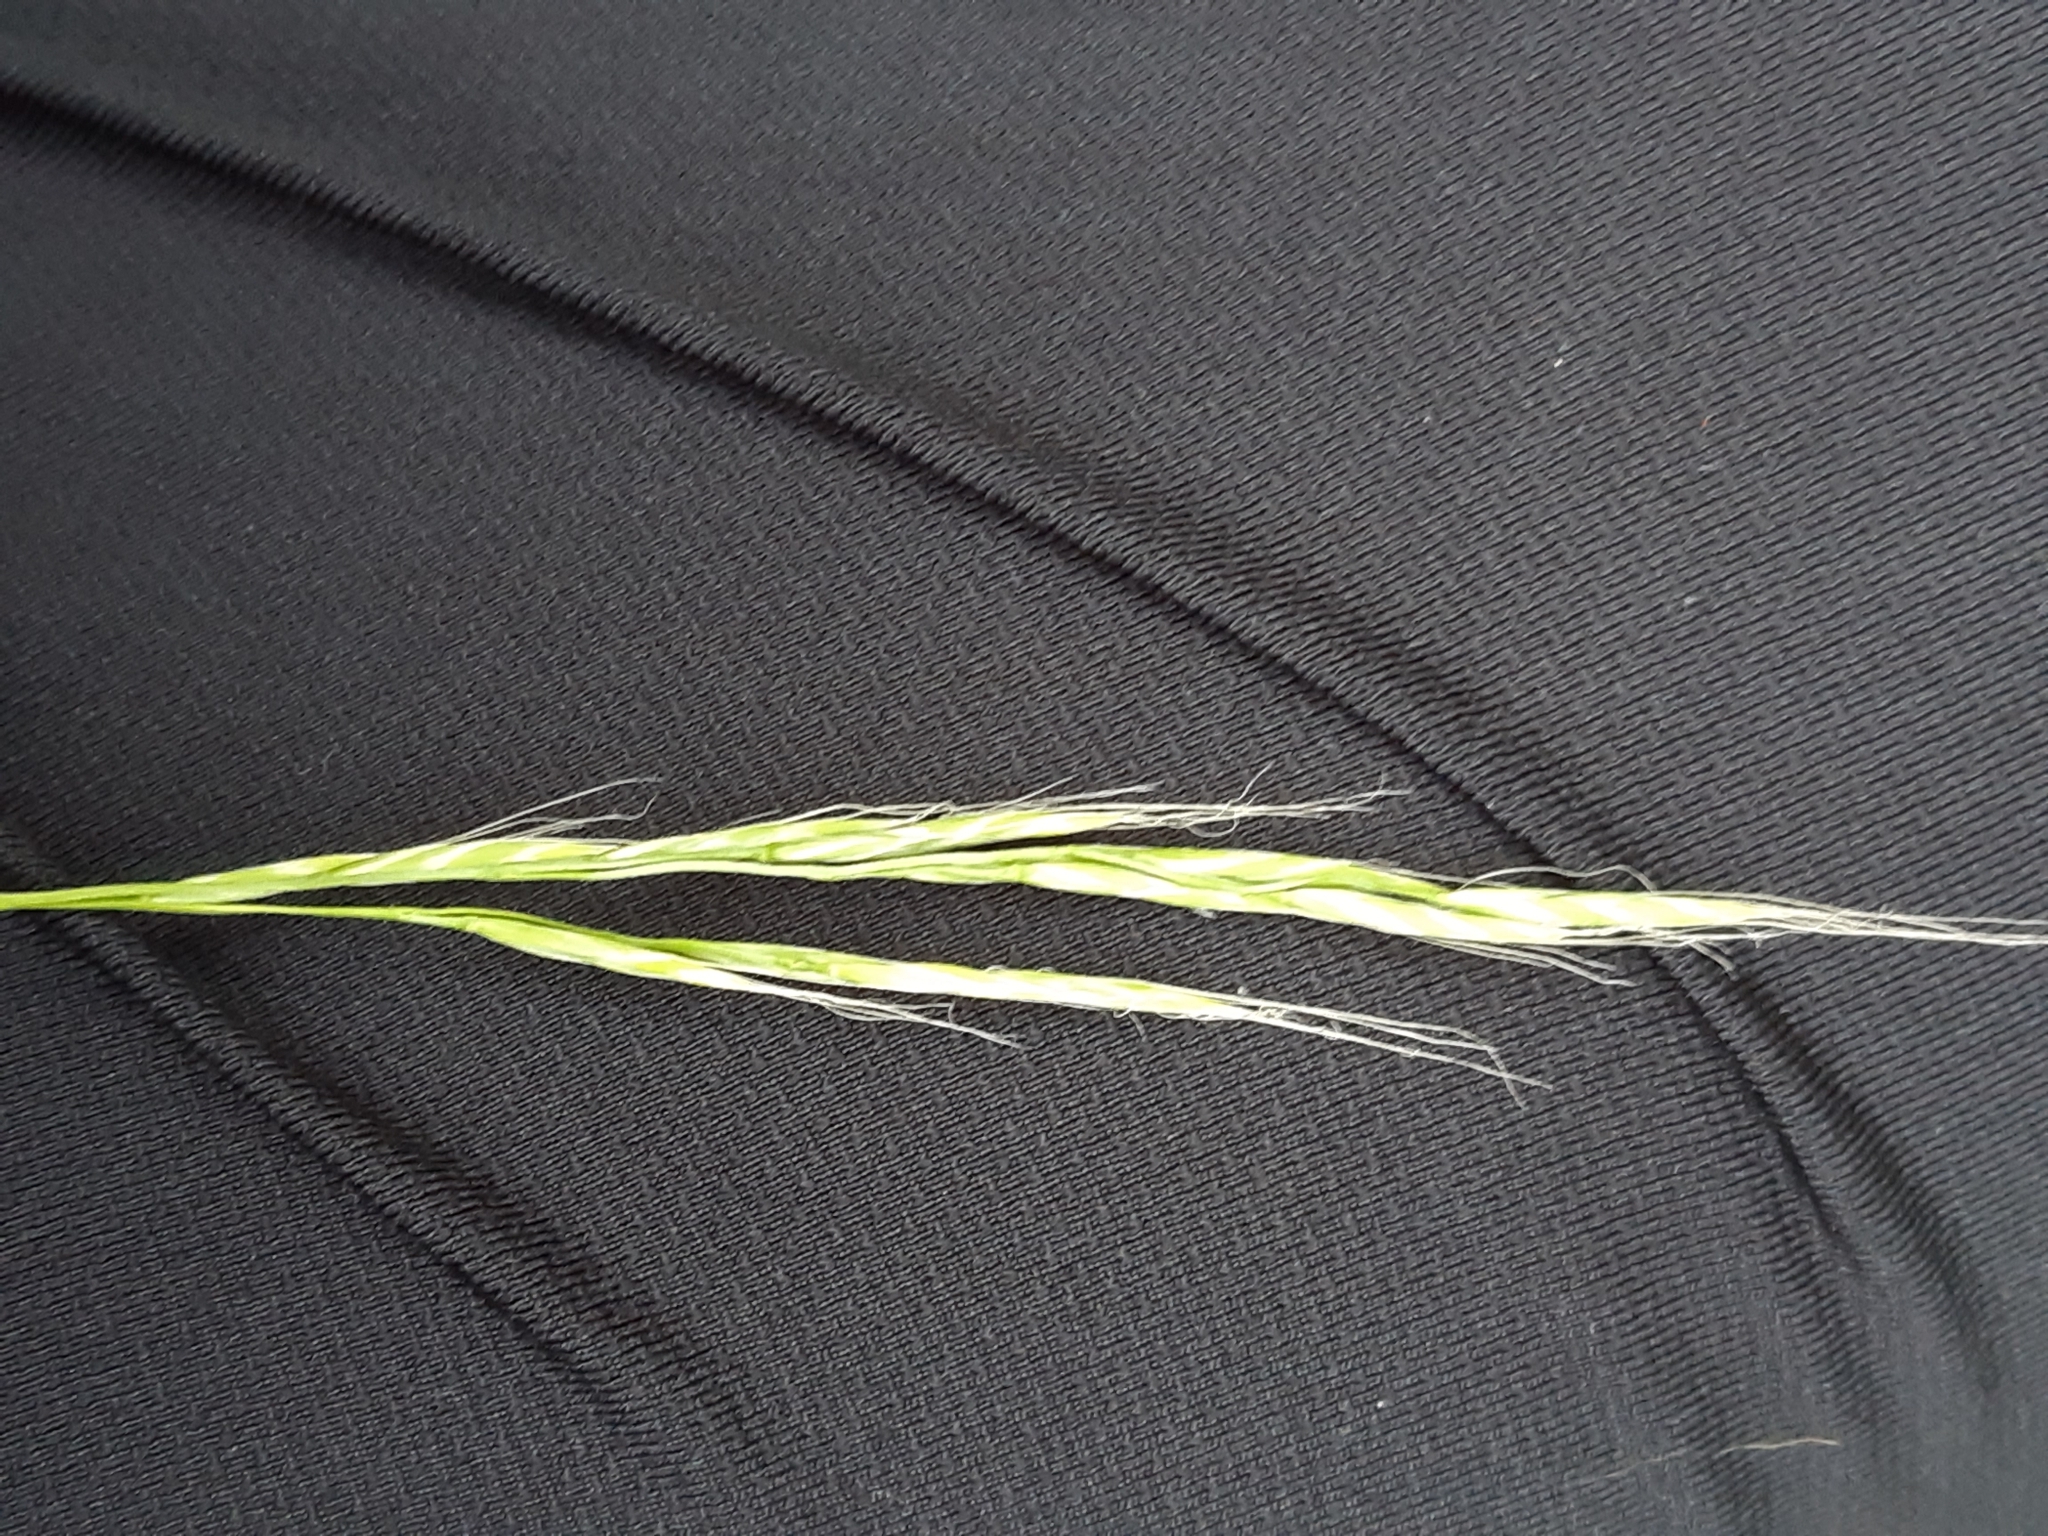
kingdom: Plantae
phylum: Tracheophyta
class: Liliopsida
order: Poales
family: Poaceae
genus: Lolium
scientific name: Lolium giganteum
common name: Giant fescue
